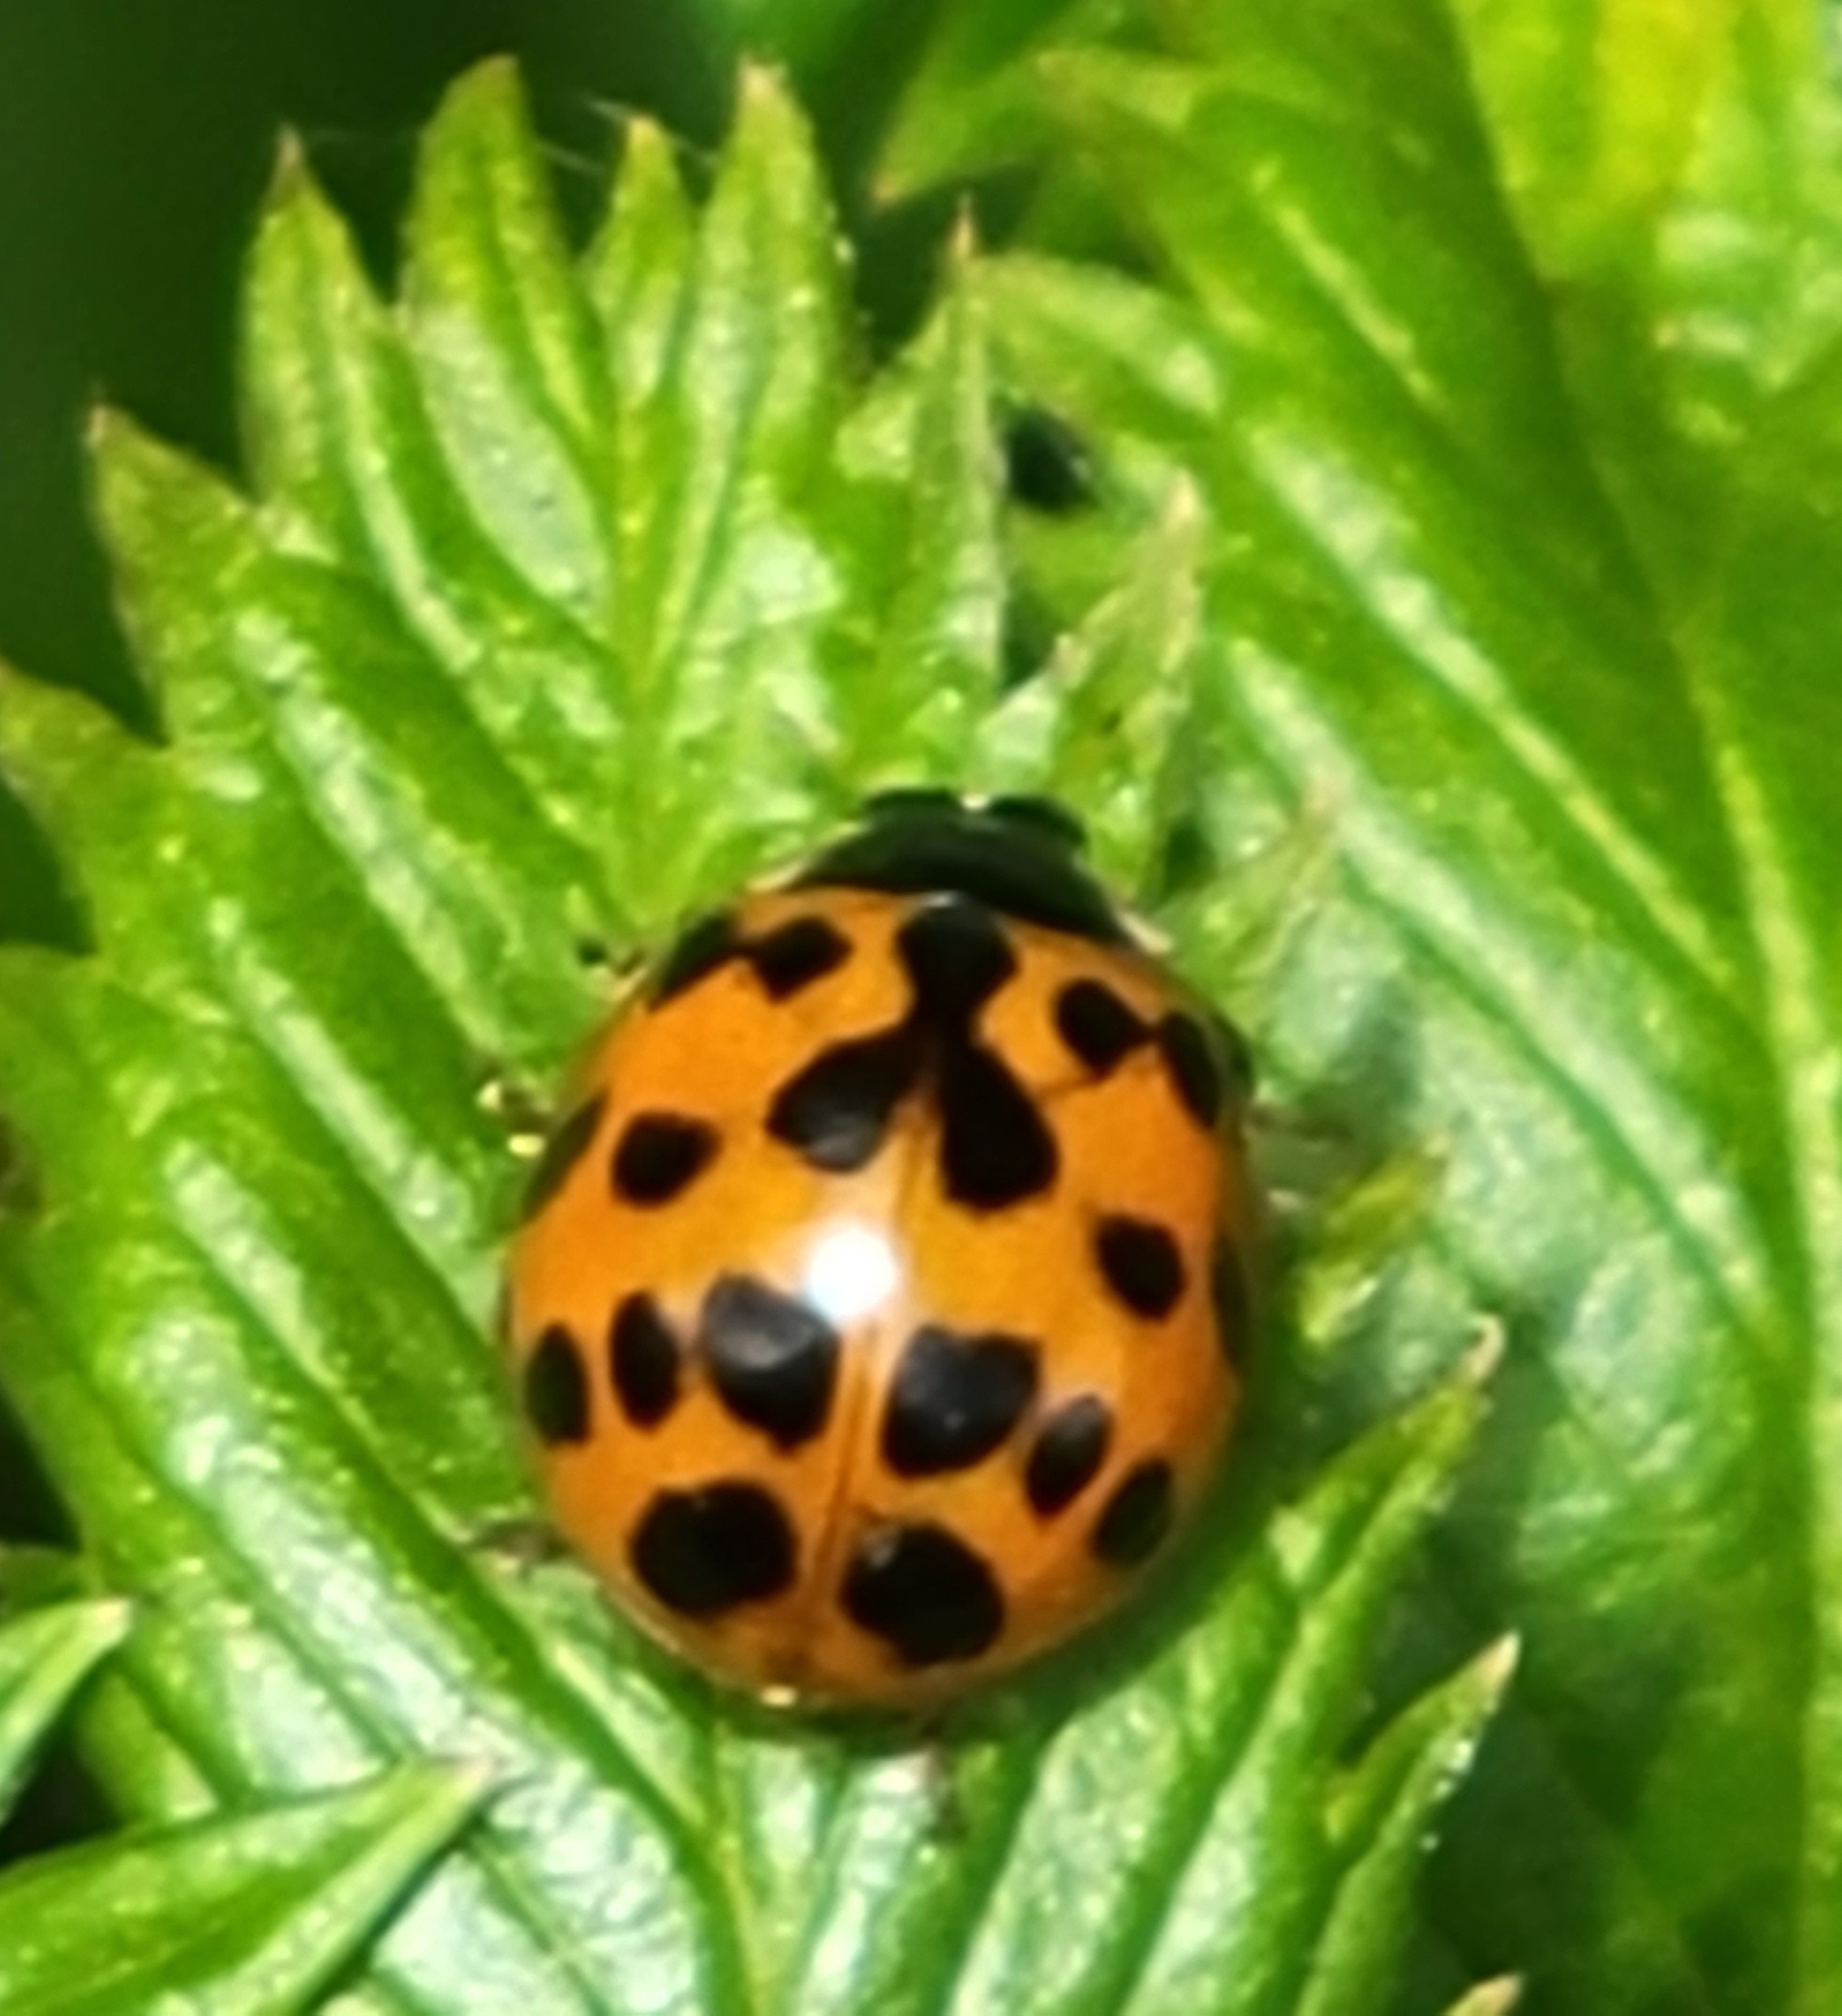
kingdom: Animalia
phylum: Arthropoda
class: Insecta
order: Coleoptera
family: Coccinellidae
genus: Harmonia
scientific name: Harmonia axyridis
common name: Harlequin ladybird
